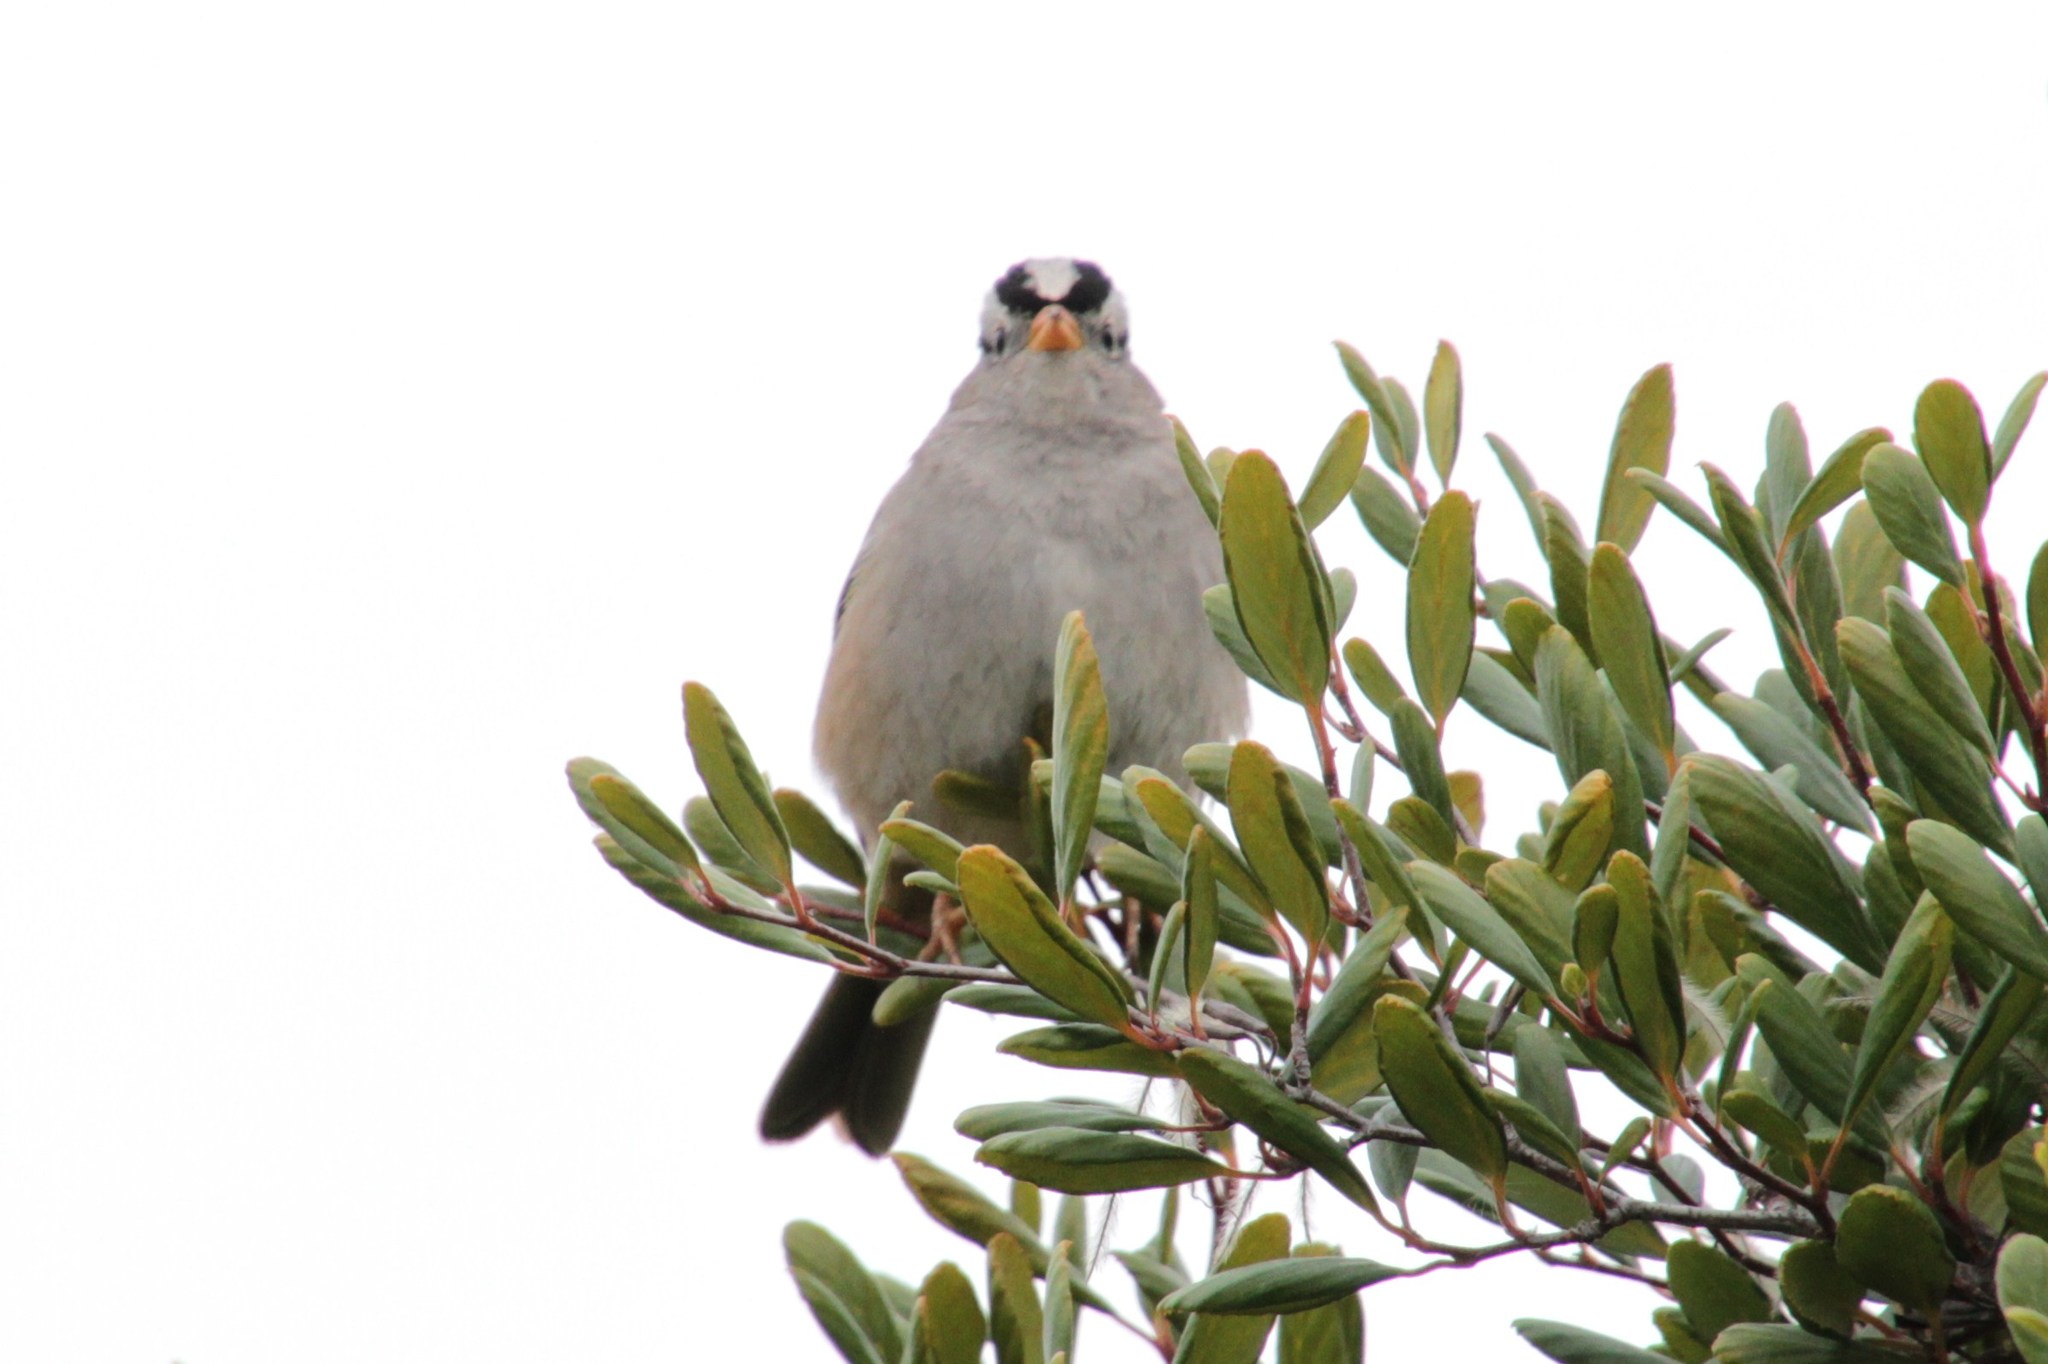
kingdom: Animalia
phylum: Chordata
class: Aves
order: Passeriformes
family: Passerellidae
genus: Zonotrichia
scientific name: Zonotrichia leucophrys
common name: White-crowned sparrow
